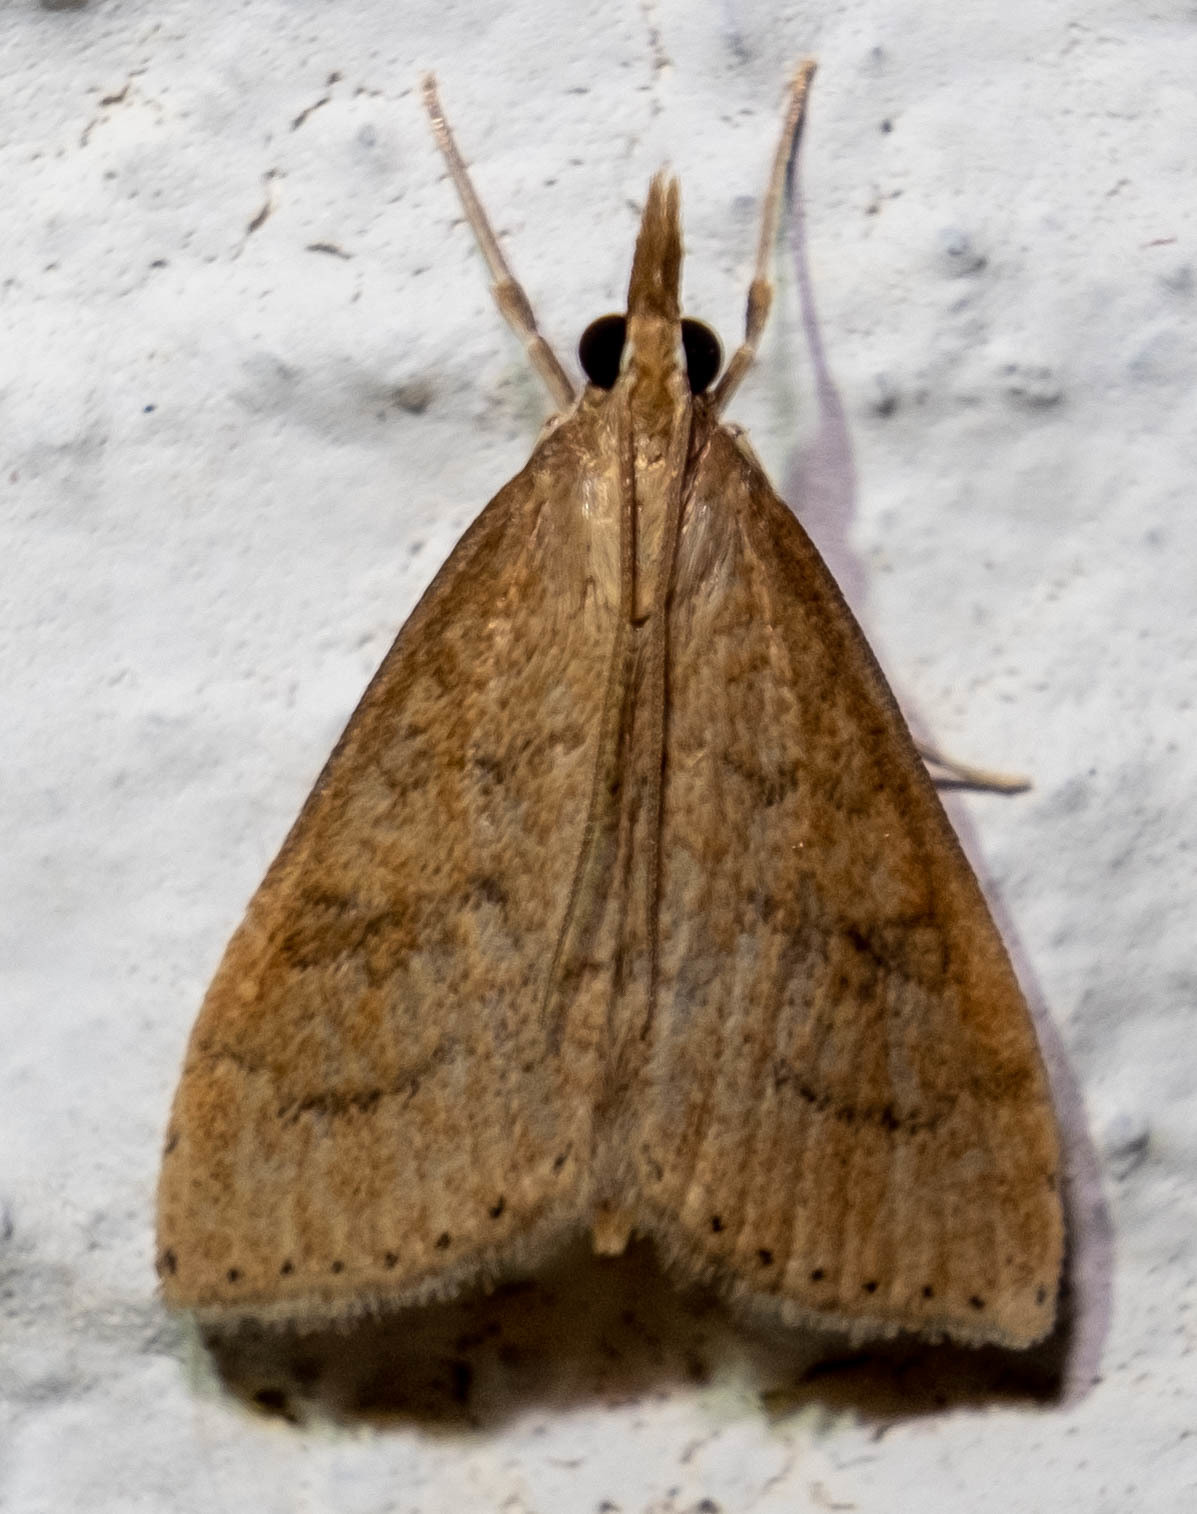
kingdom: Animalia
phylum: Arthropoda
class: Insecta
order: Lepidoptera
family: Crambidae
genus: Udea
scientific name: Udea rubigalis
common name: Celery leaftier moth
